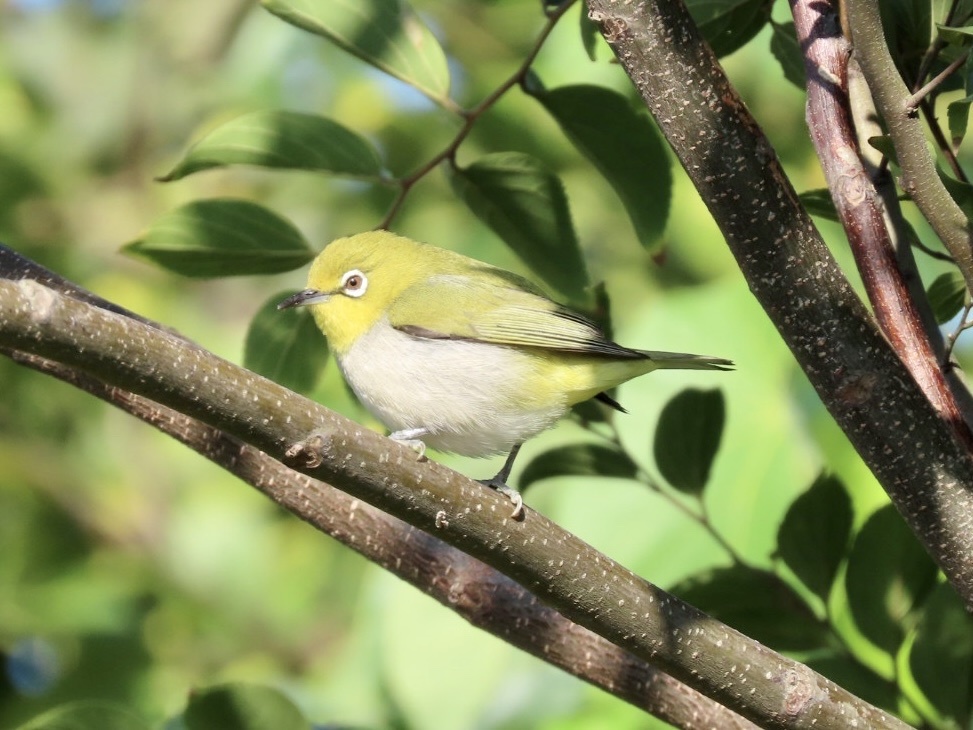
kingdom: Animalia
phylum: Chordata
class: Aves
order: Passeriformes
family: Zosteropidae
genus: Zosterops
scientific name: Zosterops simplex
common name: Swinhoe's white-eye
